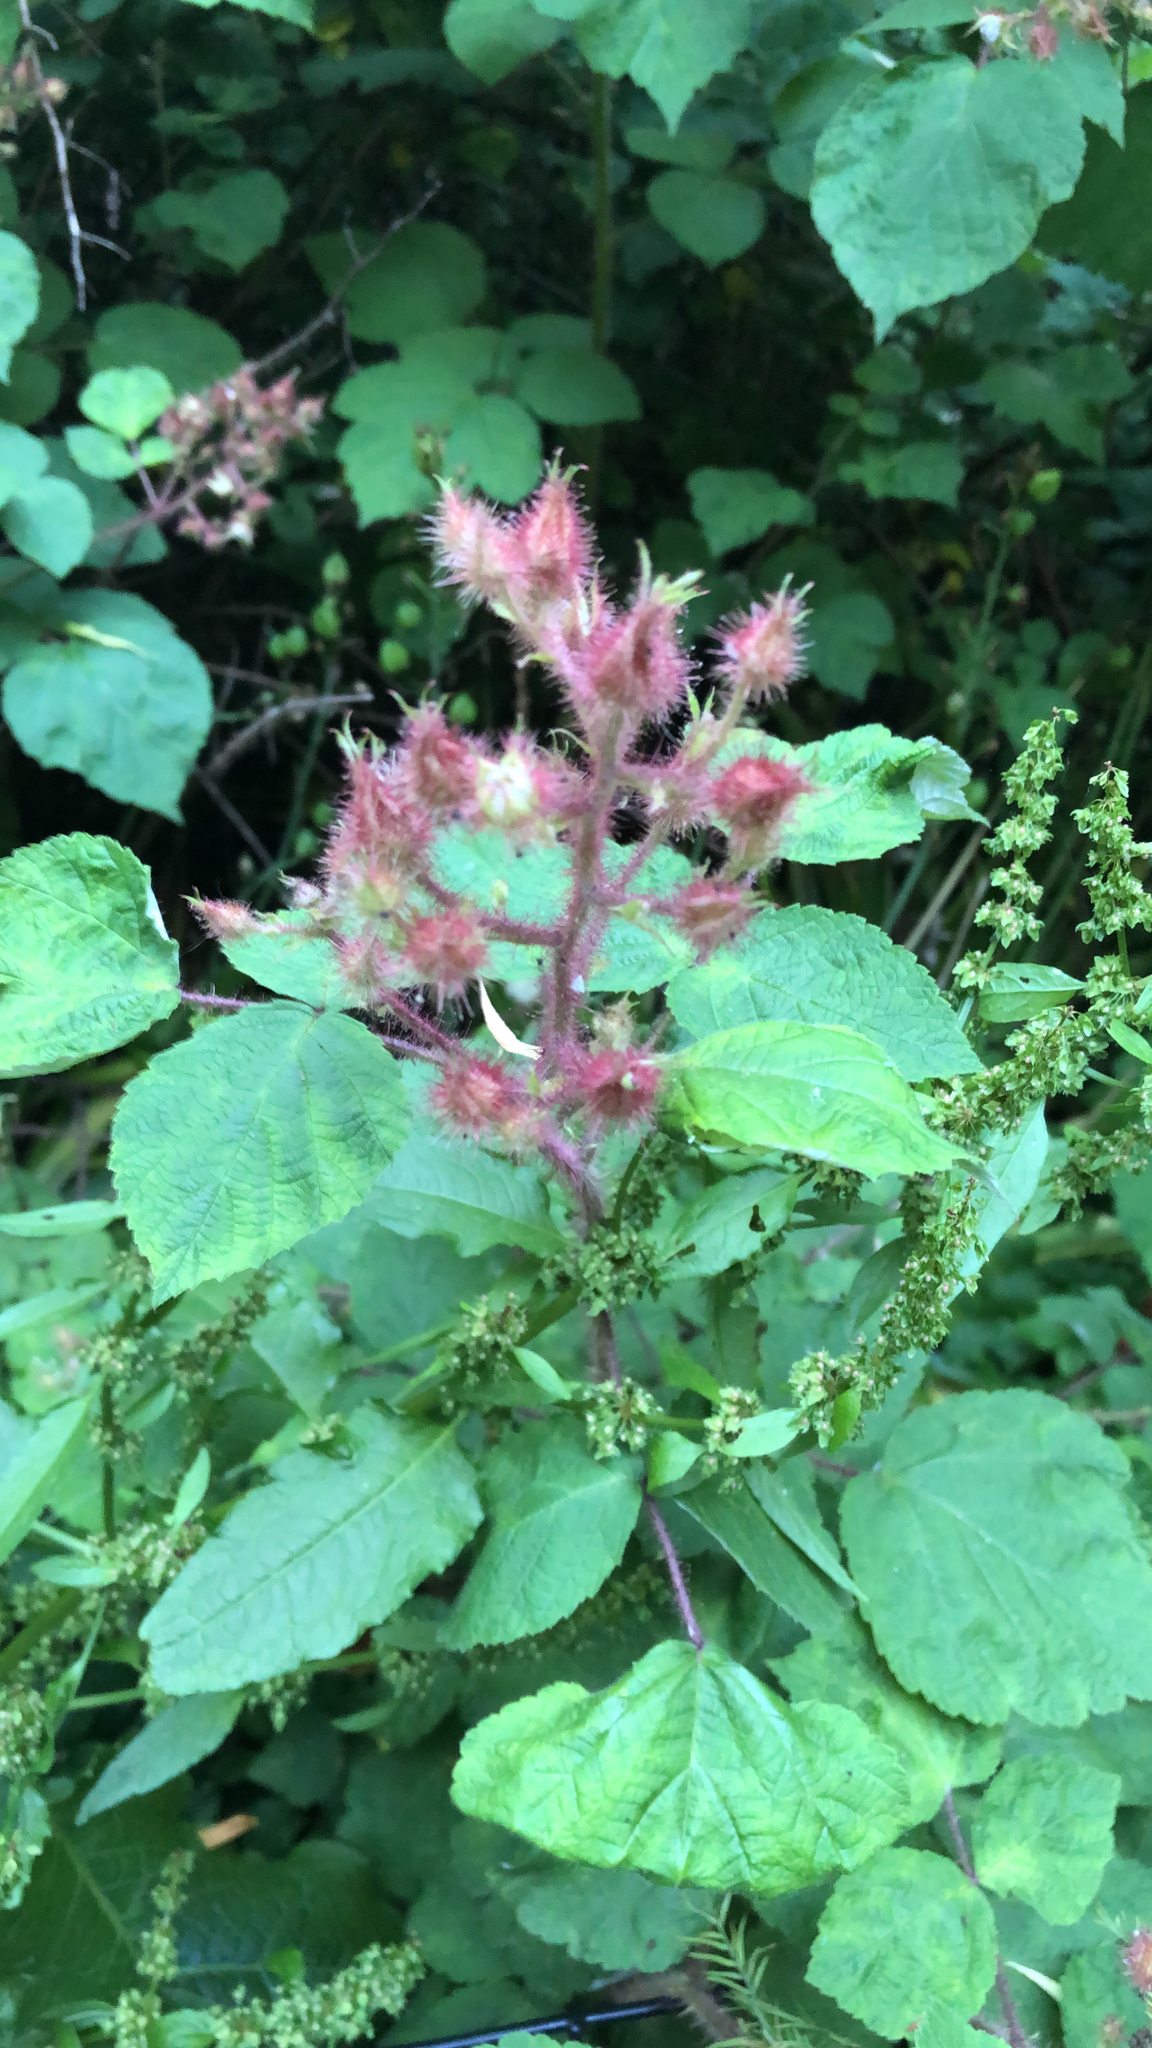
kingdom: Plantae
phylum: Tracheophyta
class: Magnoliopsida
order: Rosales
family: Rosaceae
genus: Rubus
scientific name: Rubus phoenicolasius
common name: Japanese wineberry
